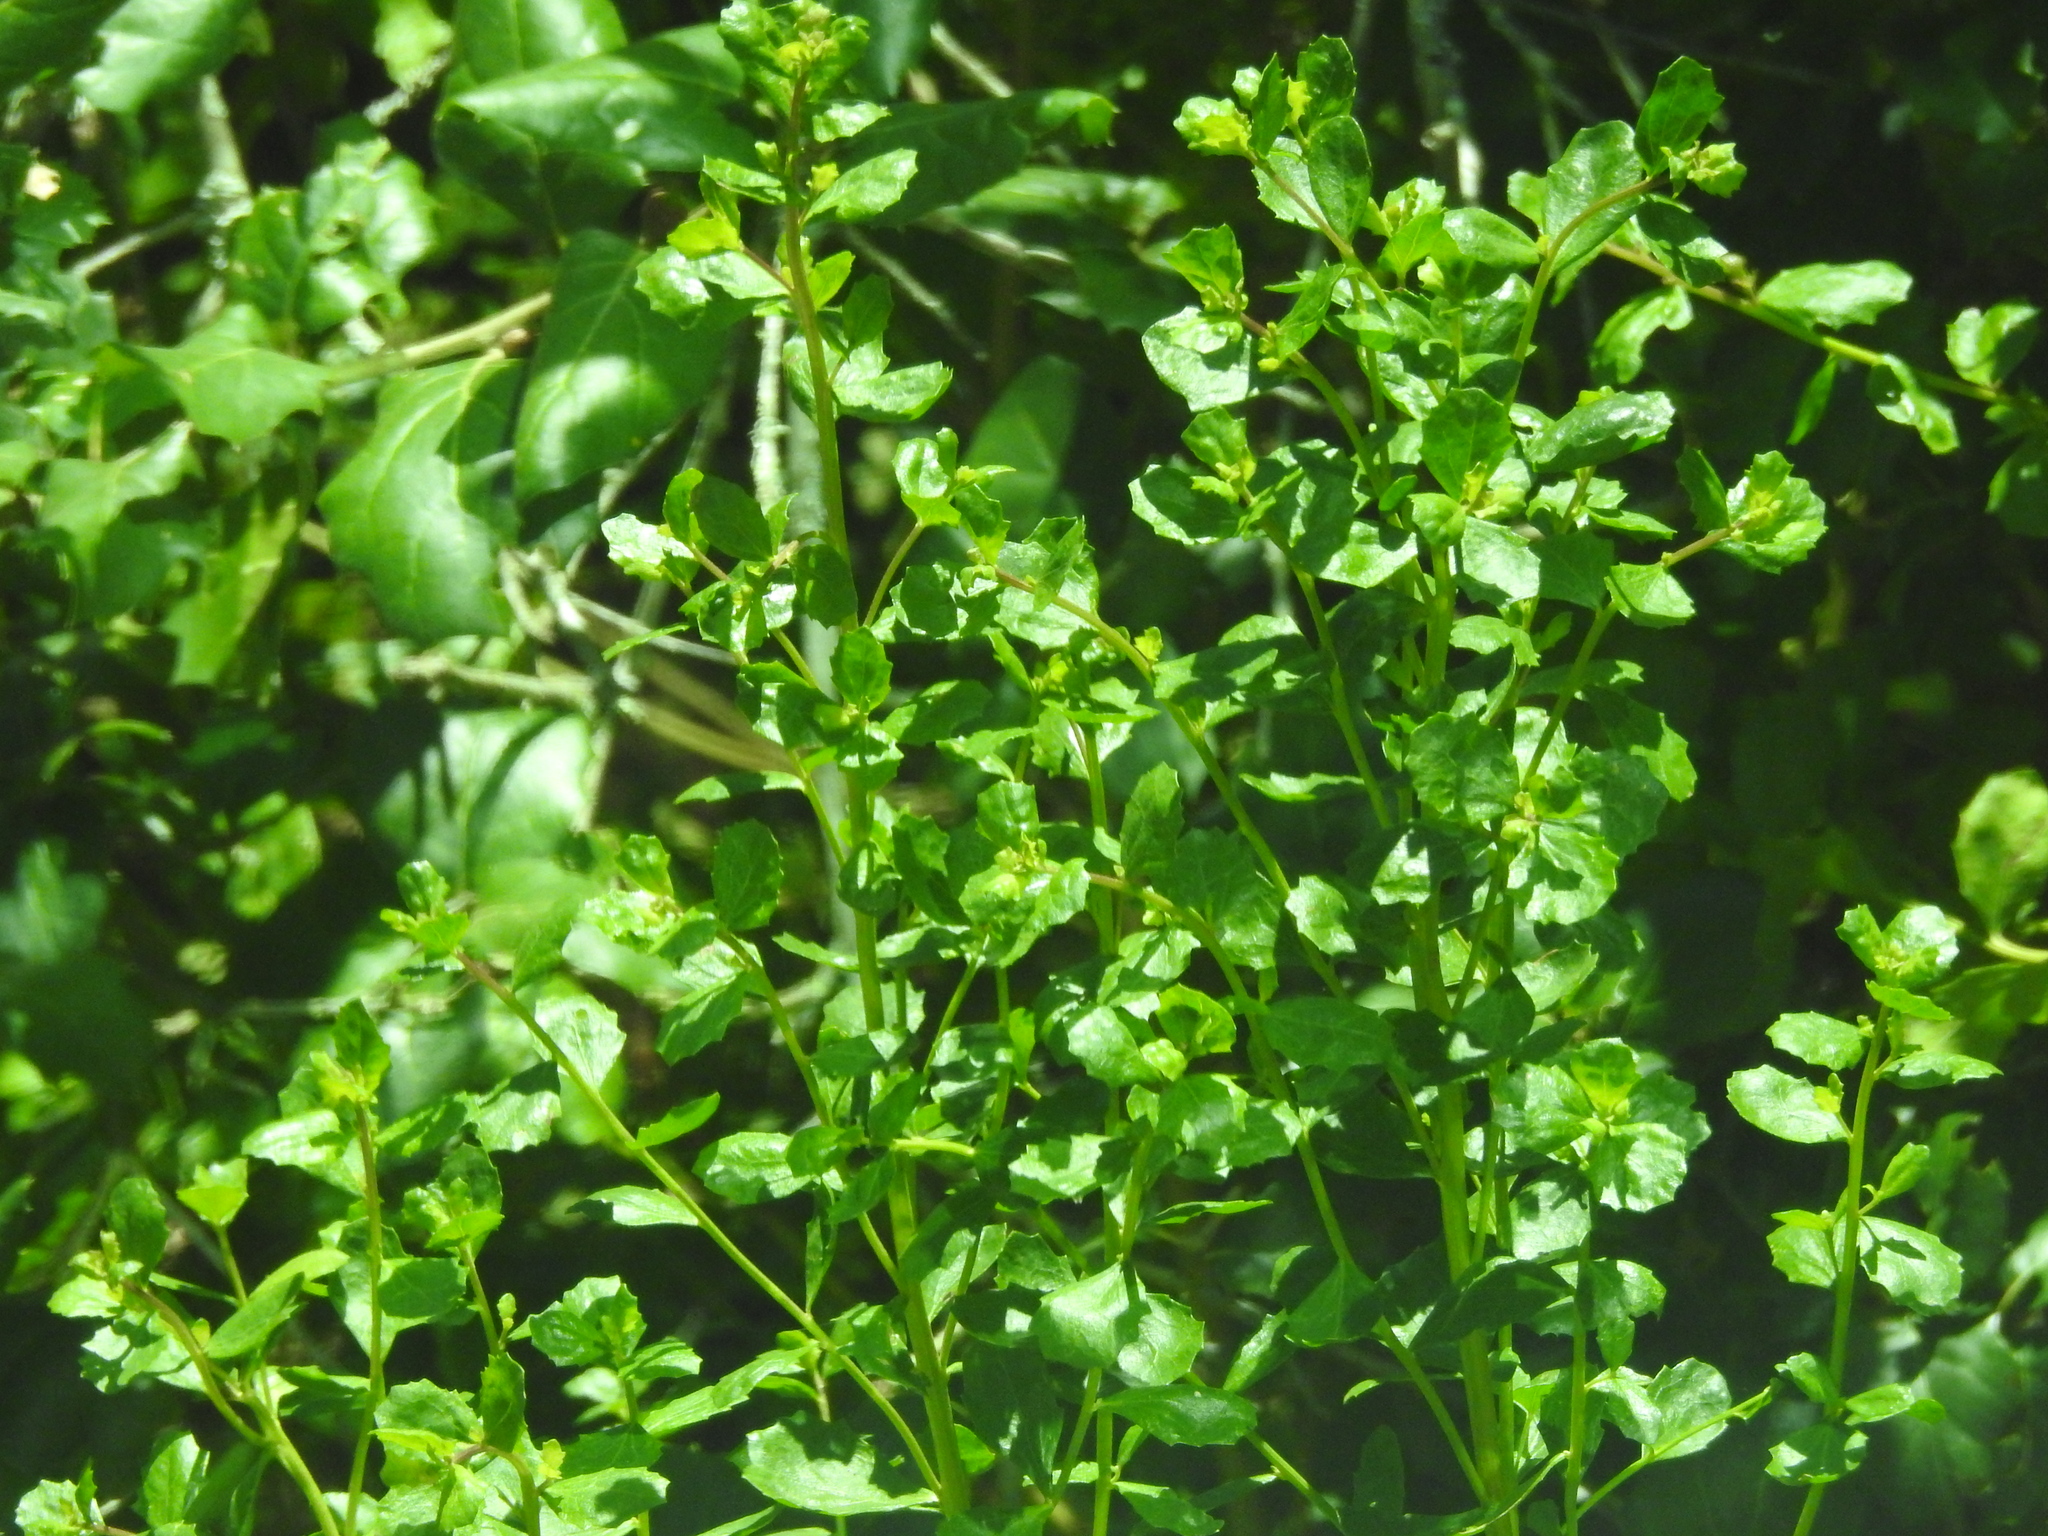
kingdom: Plantae
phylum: Tracheophyta
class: Magnoliopsida
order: Asterales
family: Asteraceae
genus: Baccharis
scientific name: Baccharis pilularis
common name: Coyotebrush
